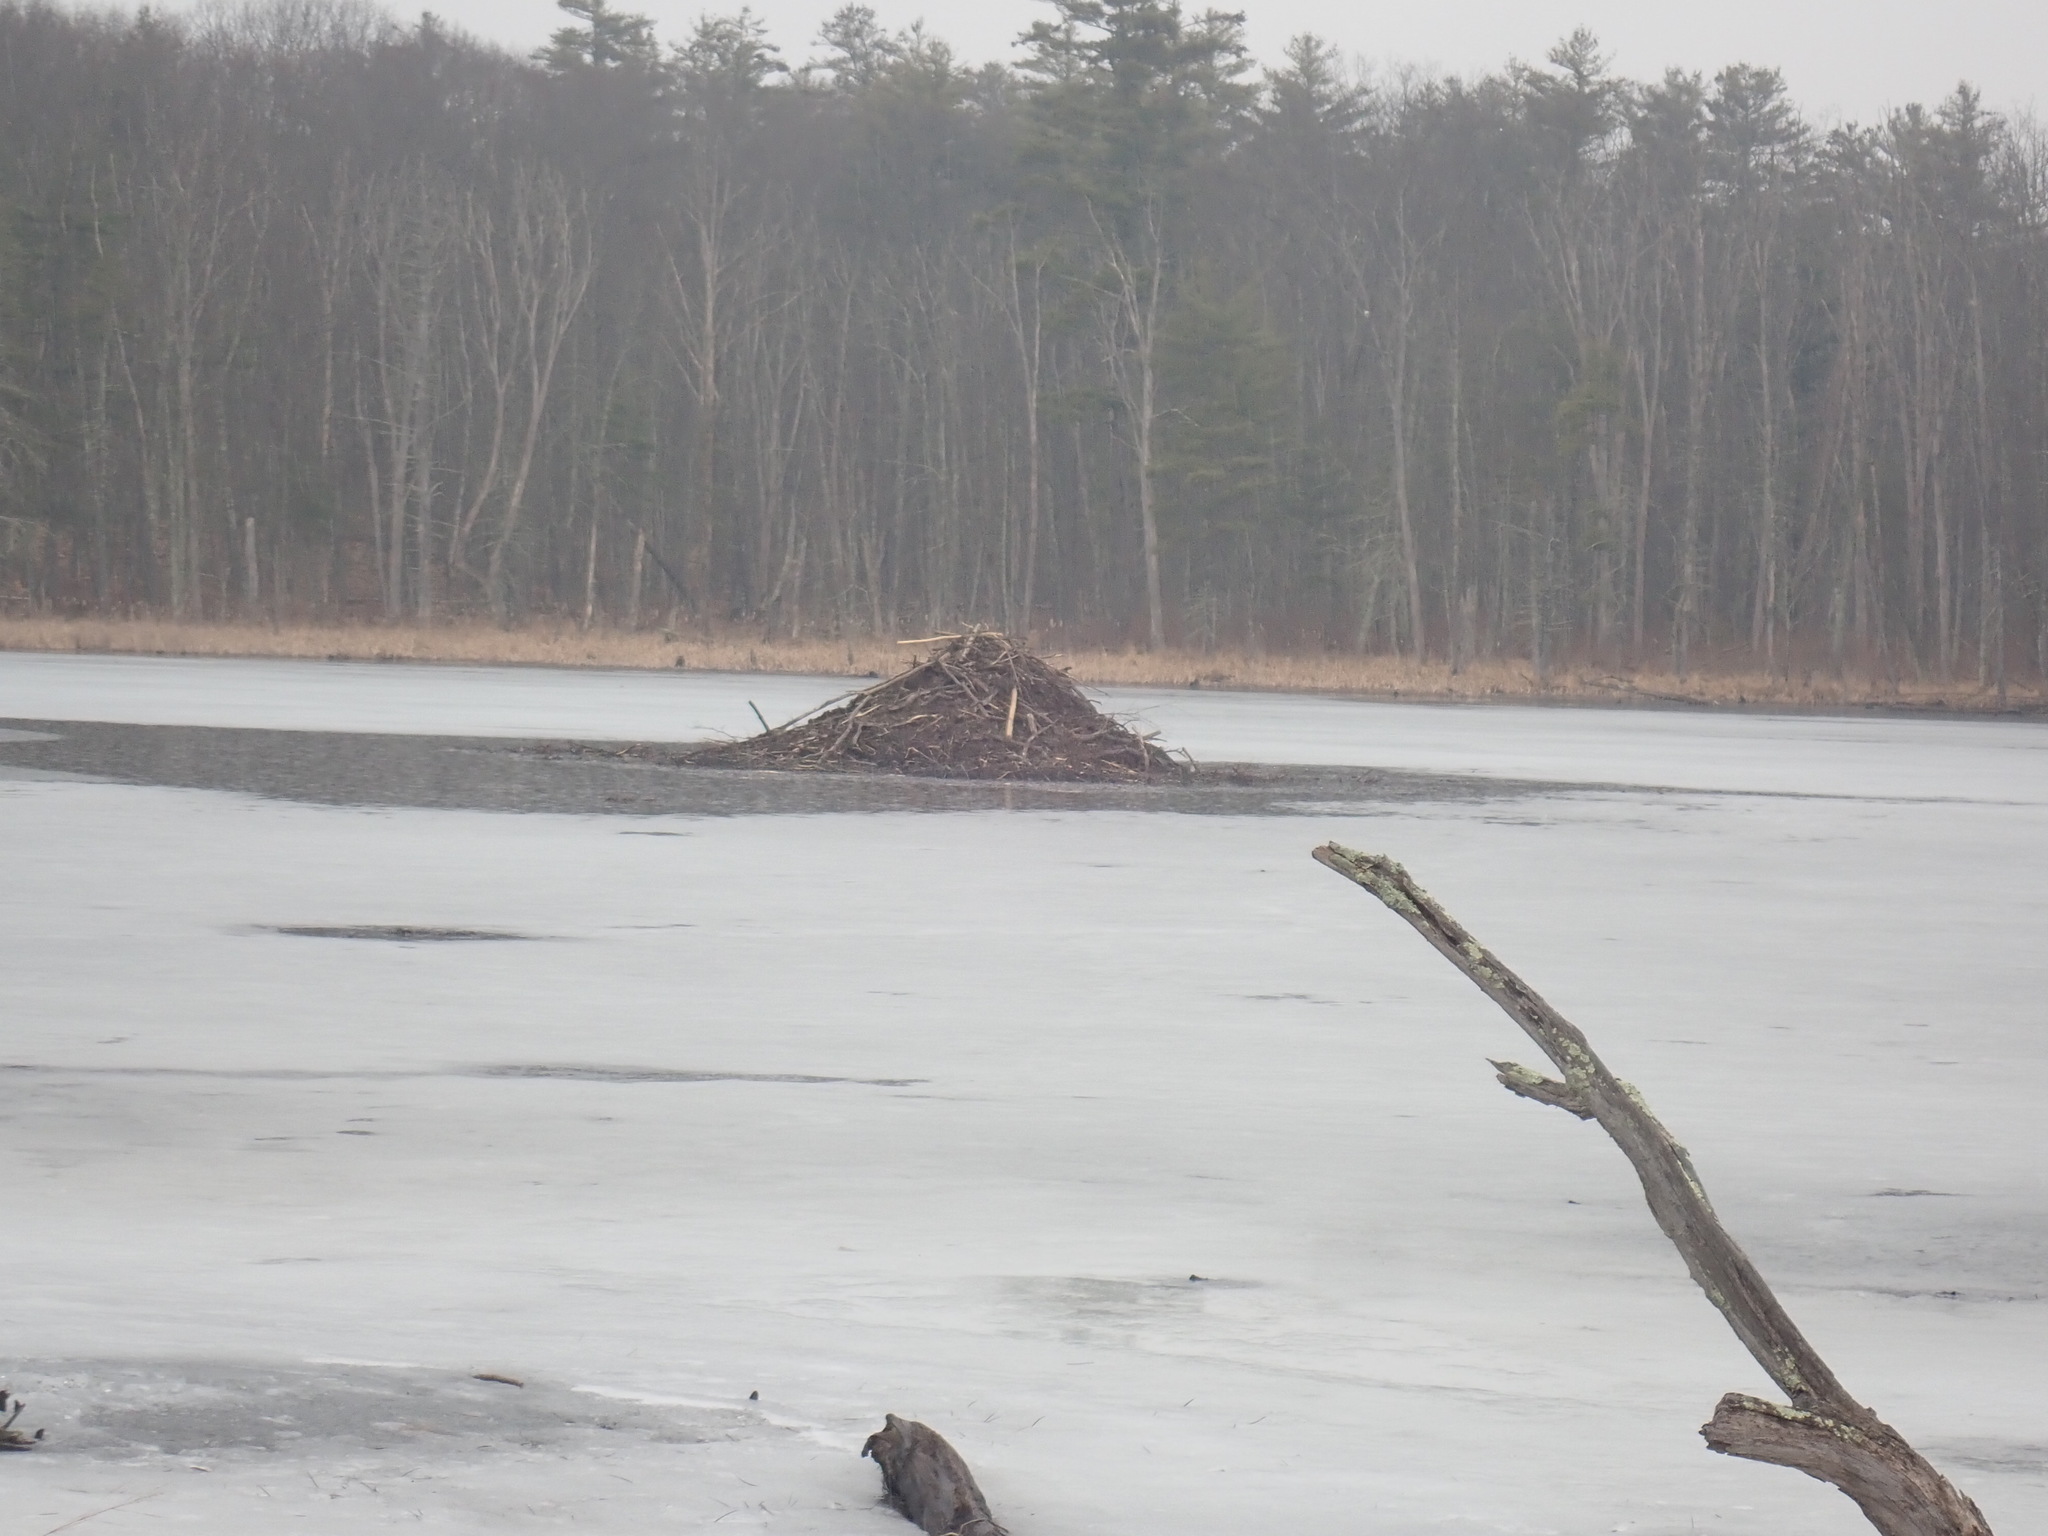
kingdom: Animalia
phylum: Chordata
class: Mammalia
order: Rodentia
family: Castoridae
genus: Castor
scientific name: Castor canadensis
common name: American beaver
